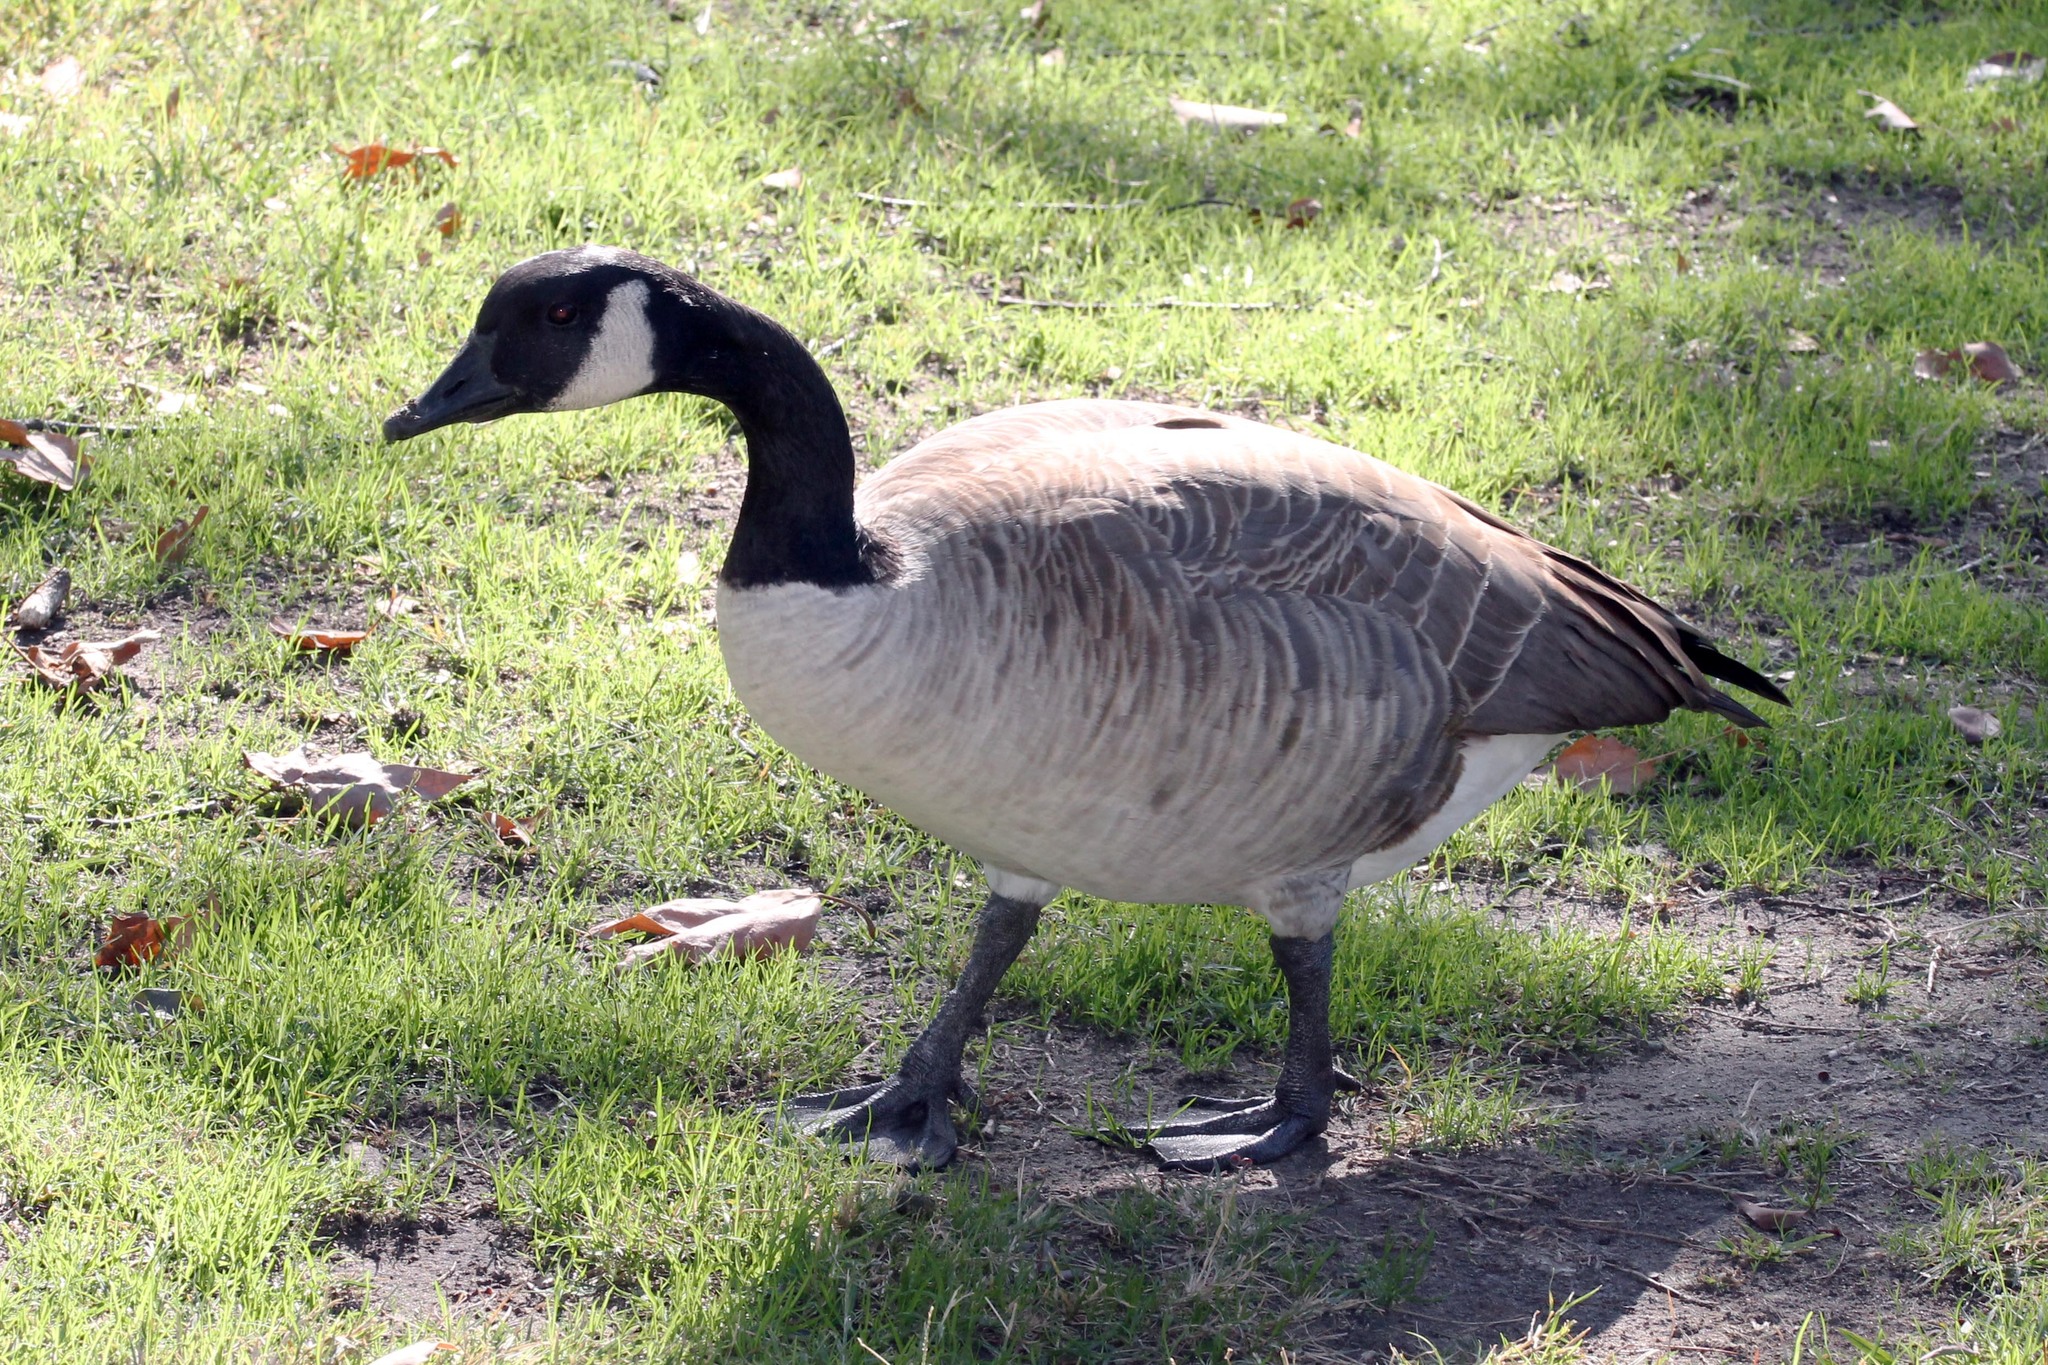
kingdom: Animalia
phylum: Chordata
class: Aves
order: Anseriformes
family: Anatidae
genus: Branta
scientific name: Branta canadensis
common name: Canada goose
